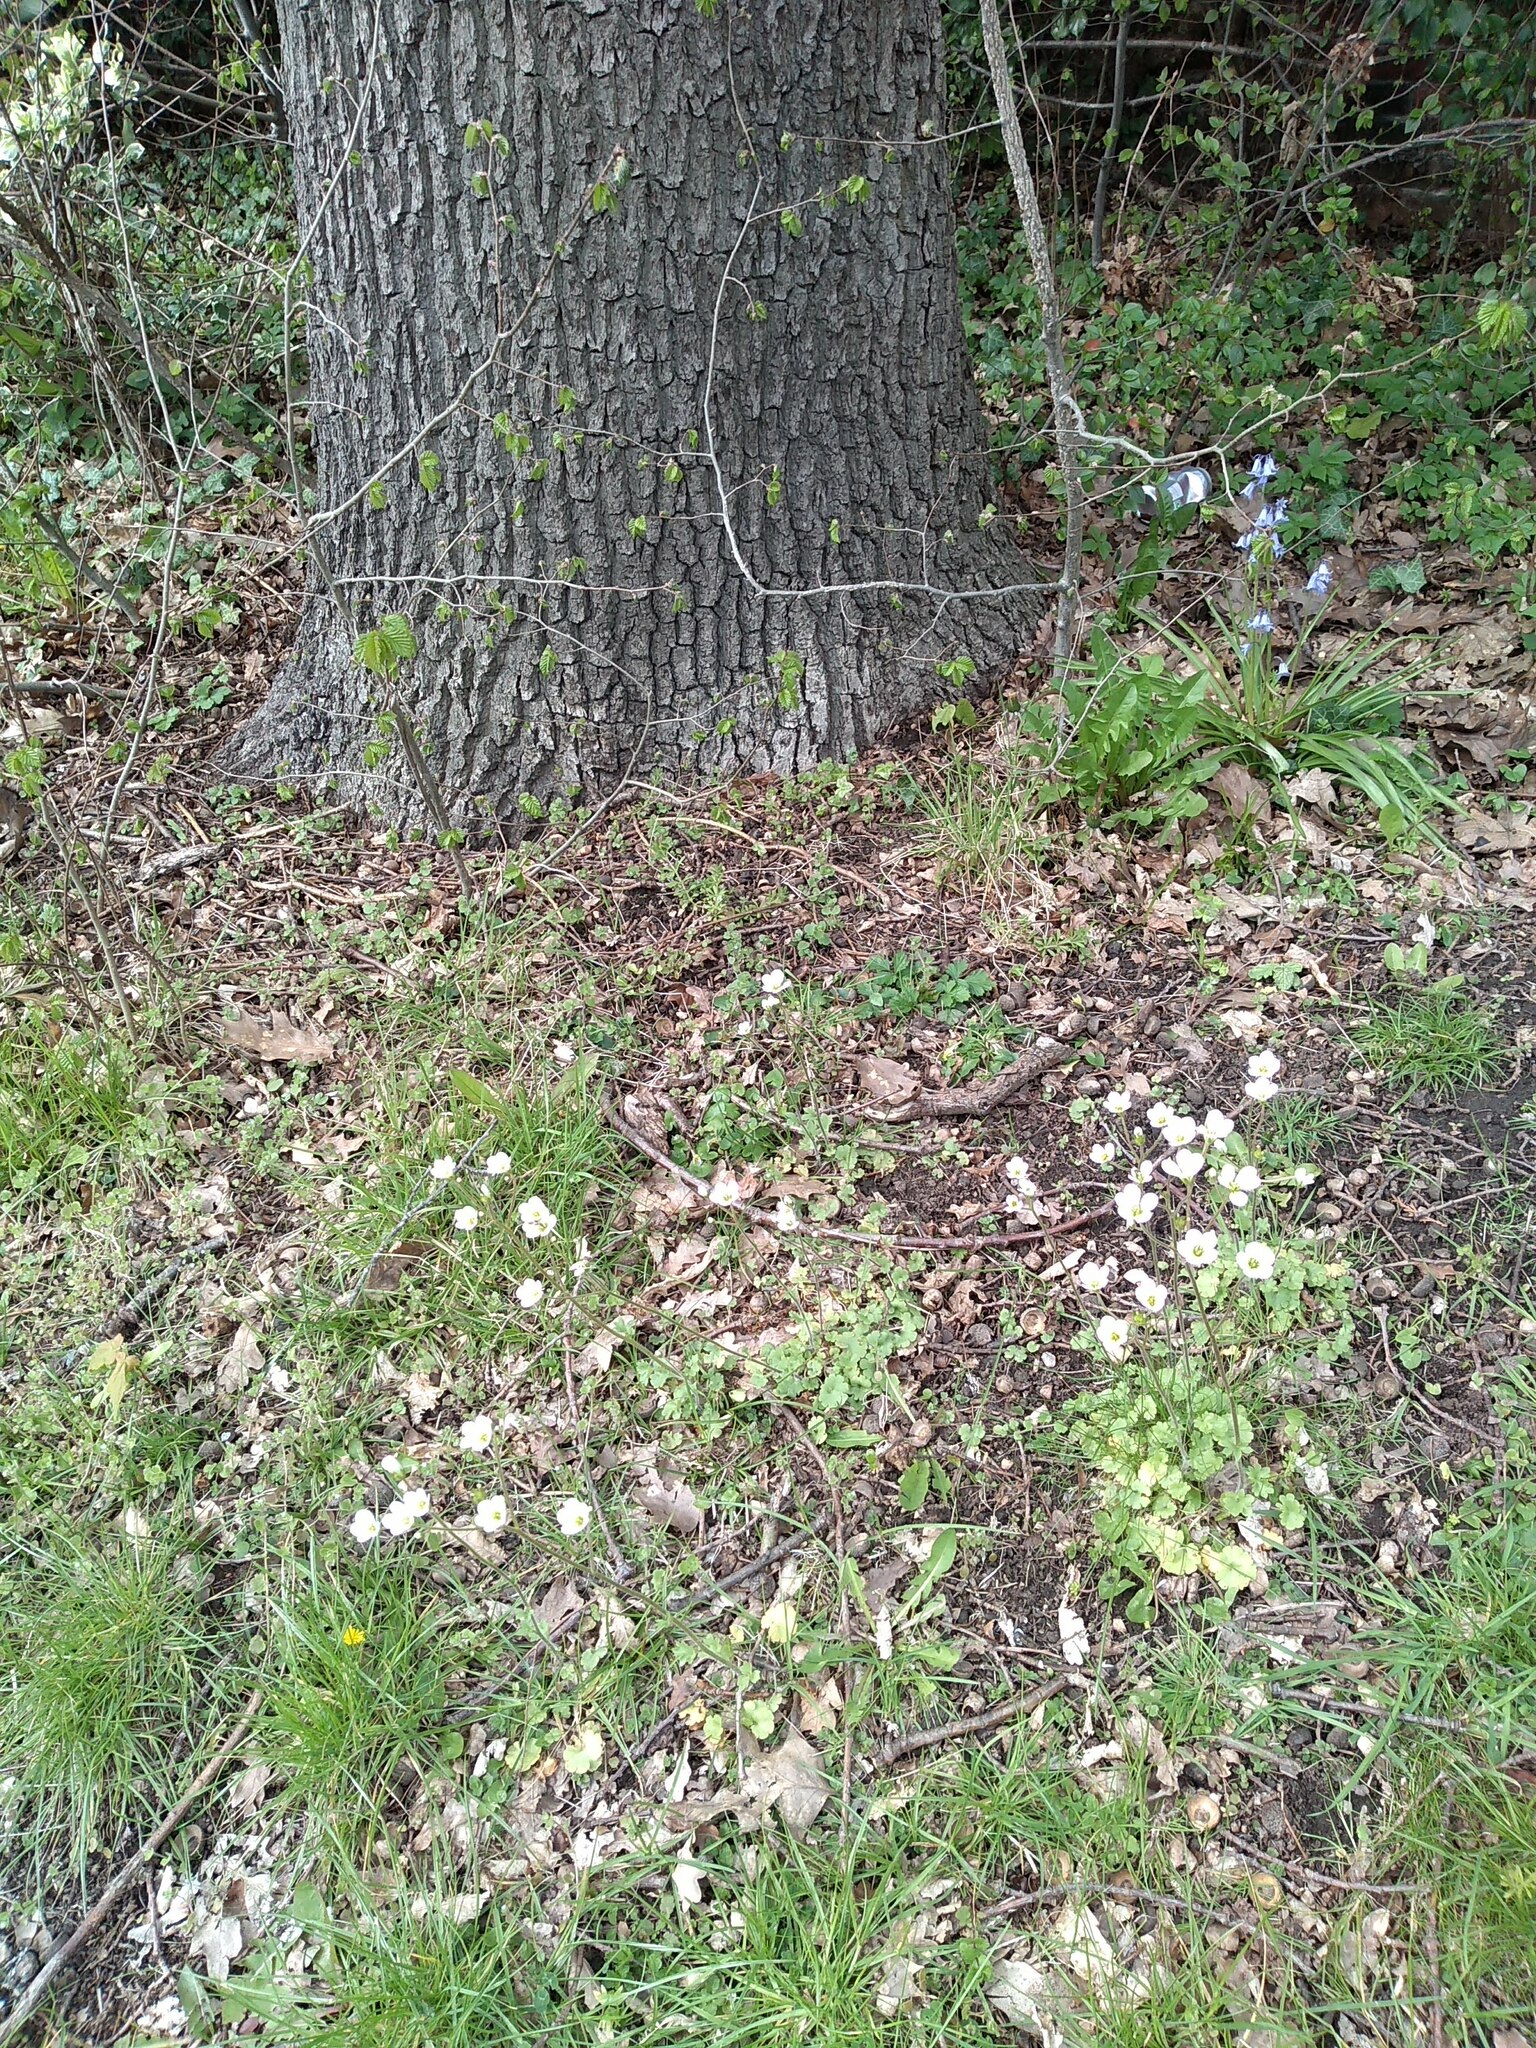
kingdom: Plantae
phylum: Tracheophyta
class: Magnoliopsida
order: Saxifragales
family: Saxifragaceae
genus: Saxifraga
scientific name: Saxifraga granulata
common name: Meadow saxifrage
